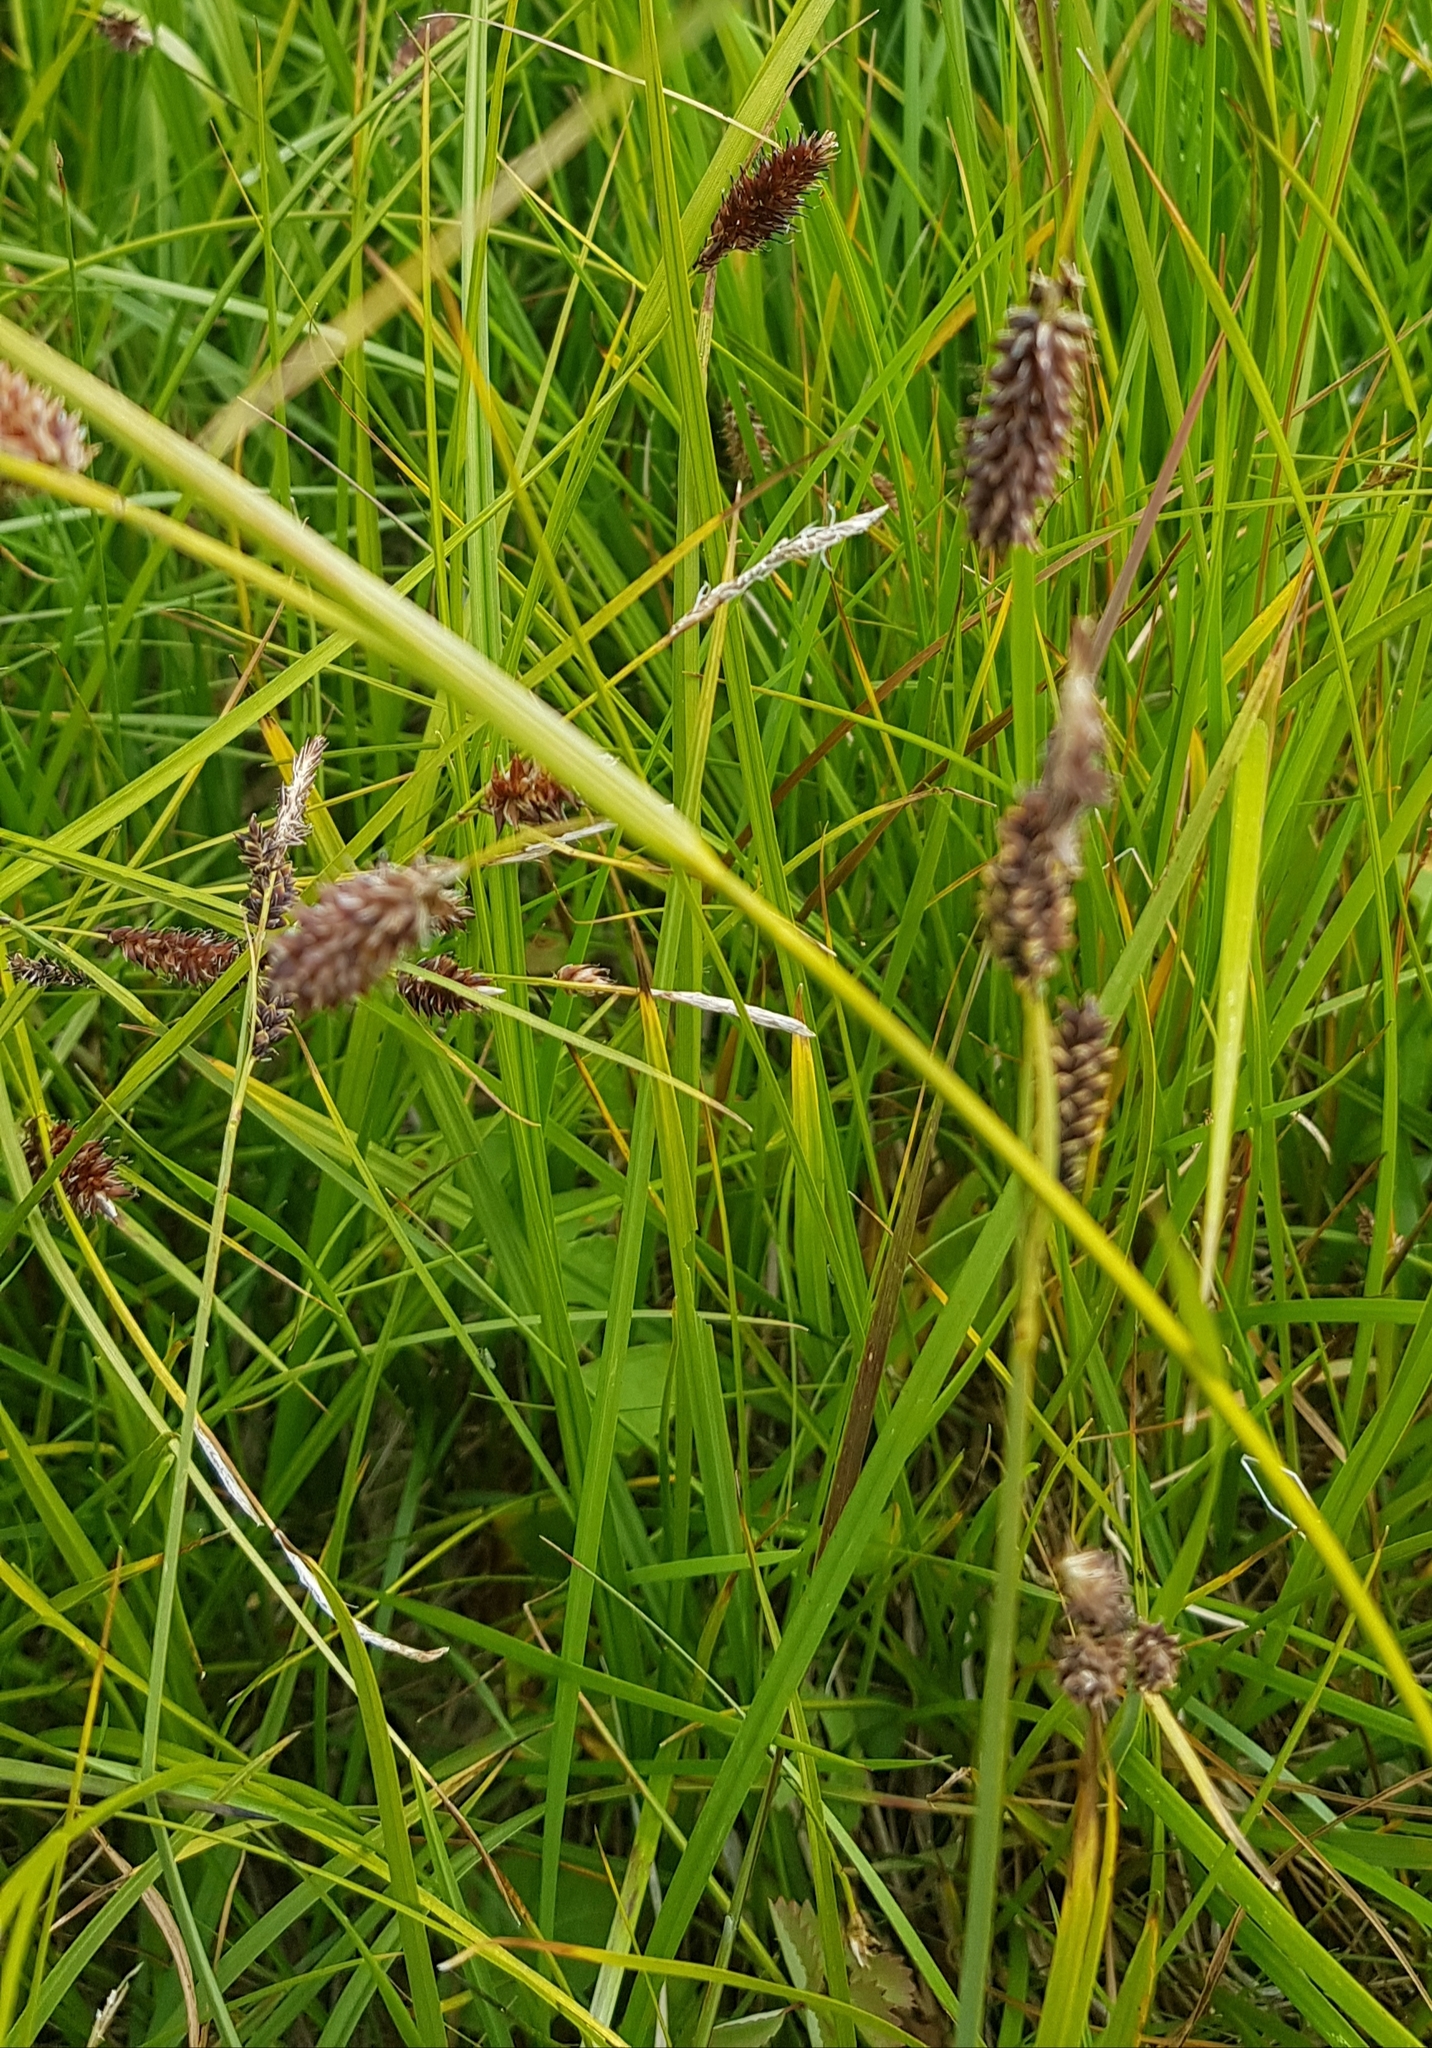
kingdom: Plantae
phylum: Tracheophyta
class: Liliopsida
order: Poales
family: Cyperaceae
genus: Carex
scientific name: Carex atherodes
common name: Wheat sedge
